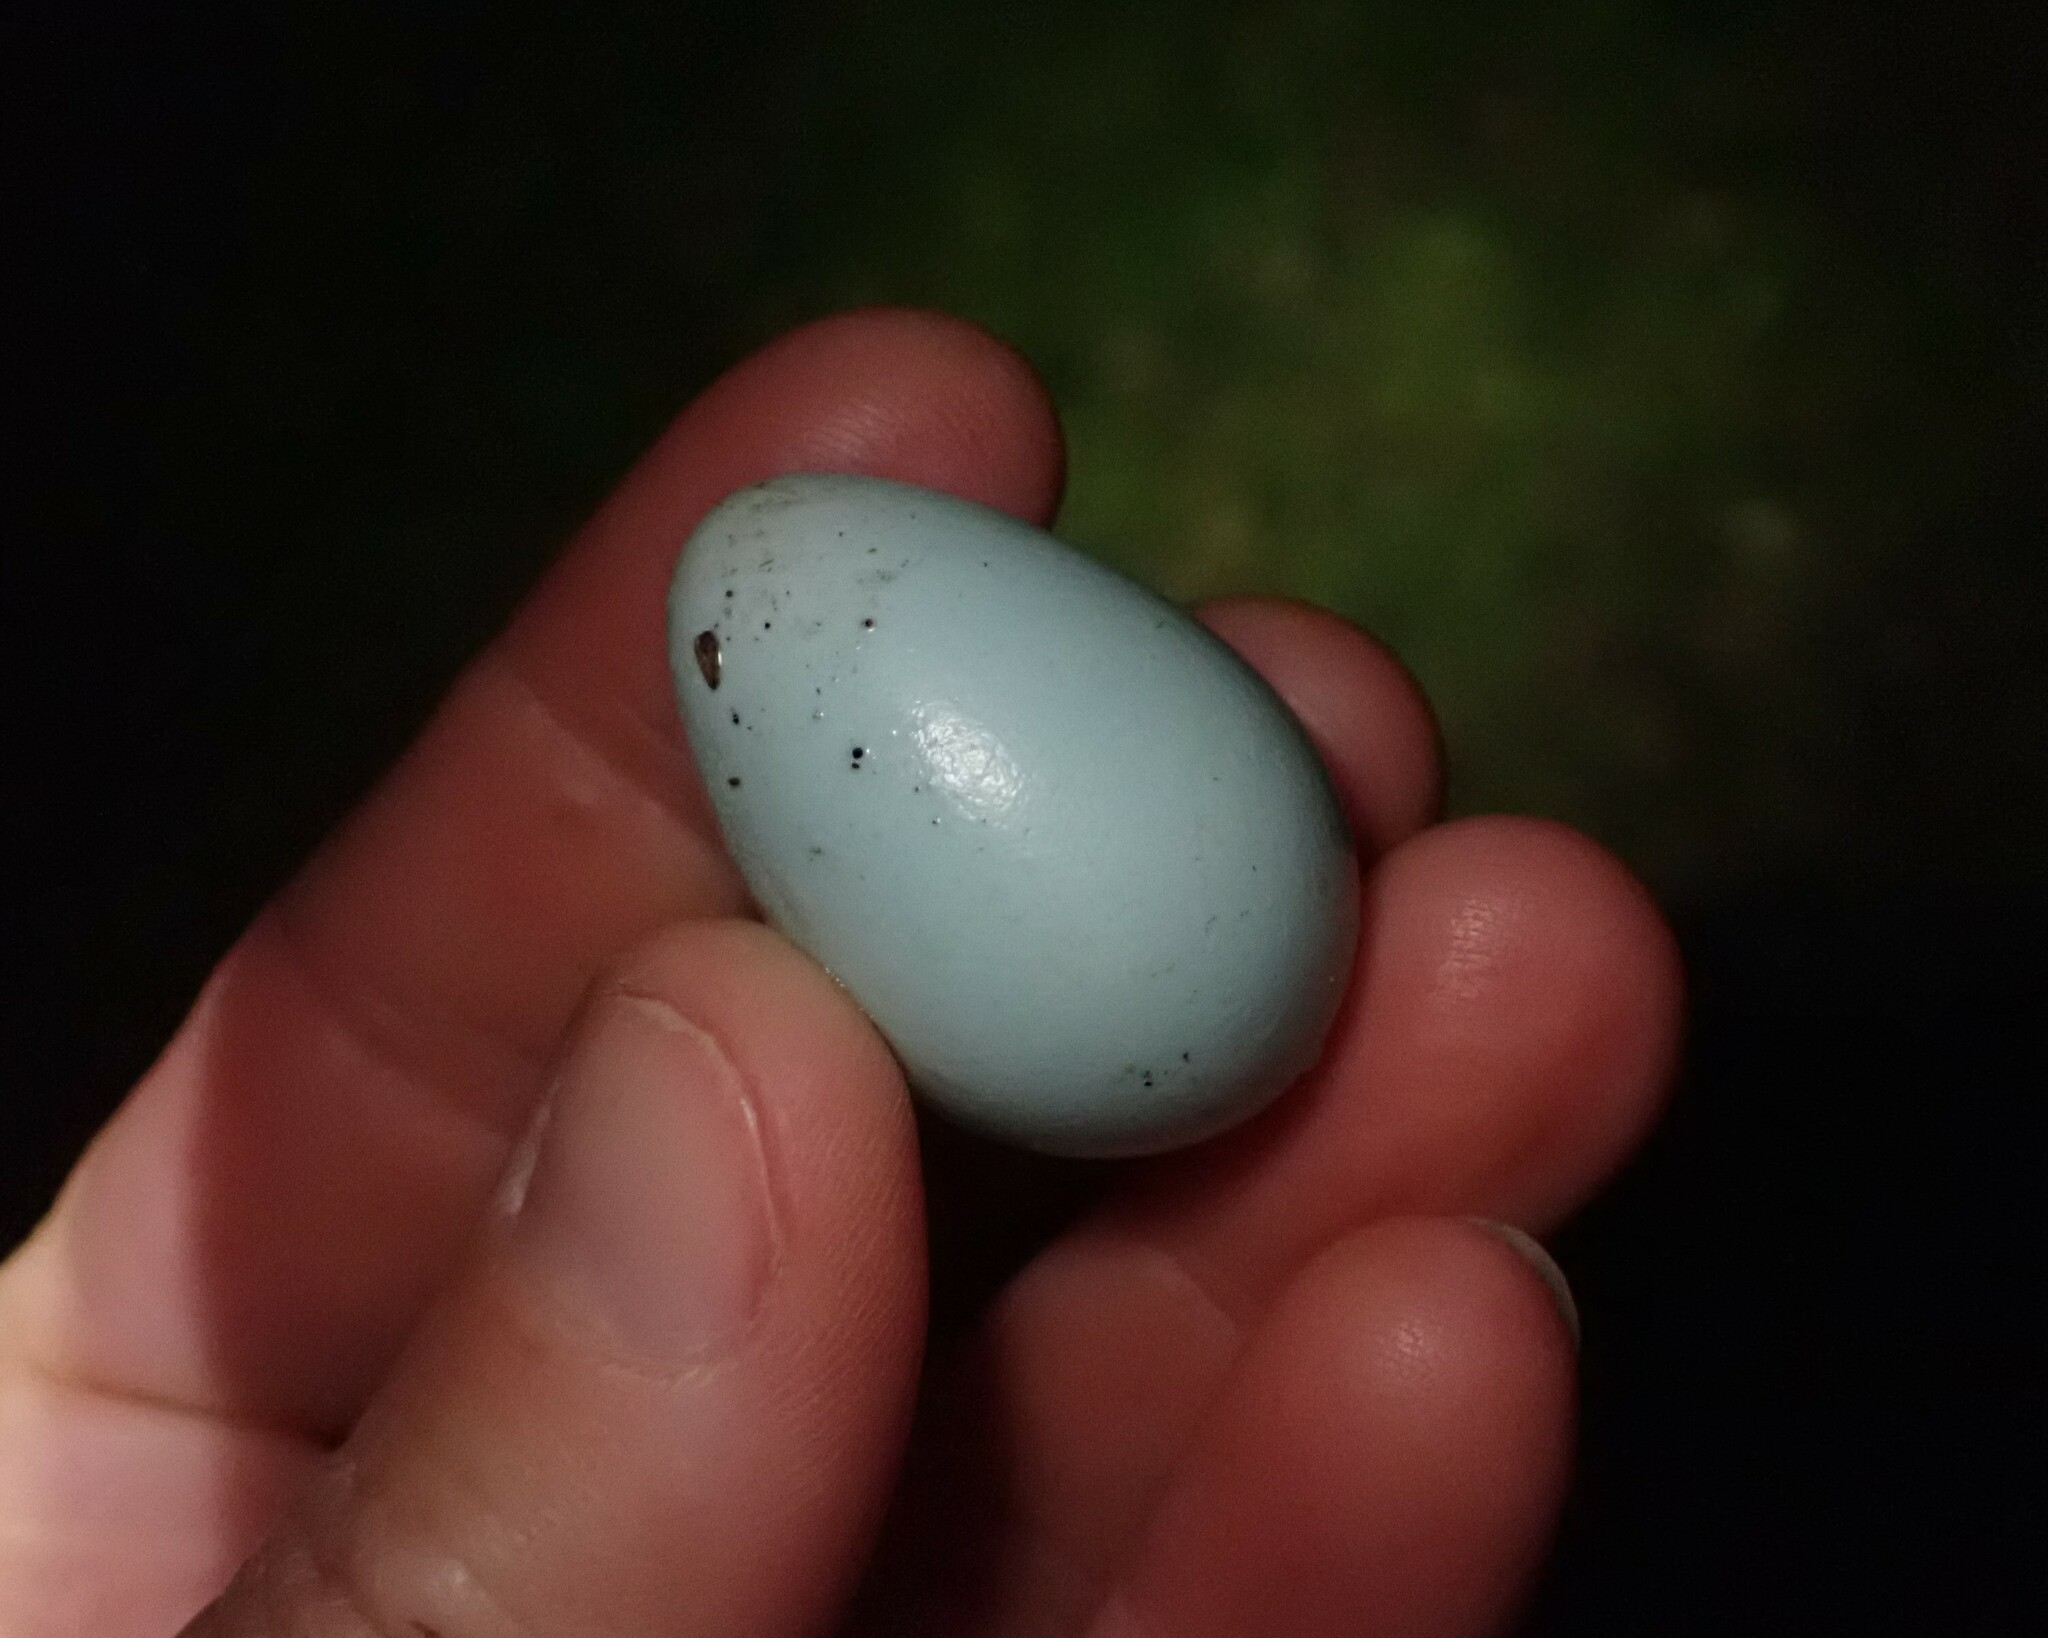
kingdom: Animalia
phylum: Chordata
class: Aves
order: Passeriformes
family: Turdidae
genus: Turdus
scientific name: Turdus philomelos
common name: Song thrush
